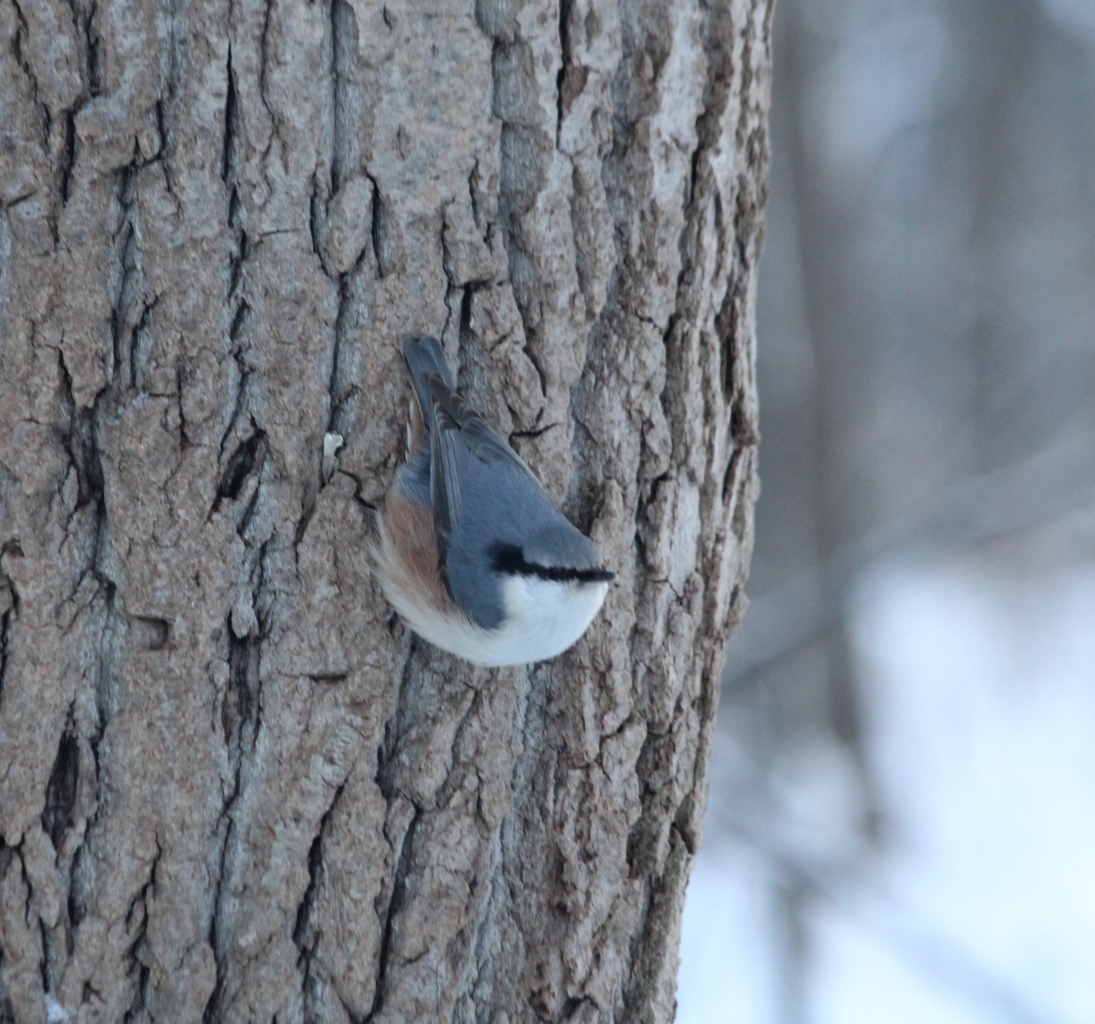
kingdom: Animalia
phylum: Chordata
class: Aves
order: Passeriformes
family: Sittidae
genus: Sitta
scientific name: Sitta europaea
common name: Eurasian nuthatch
